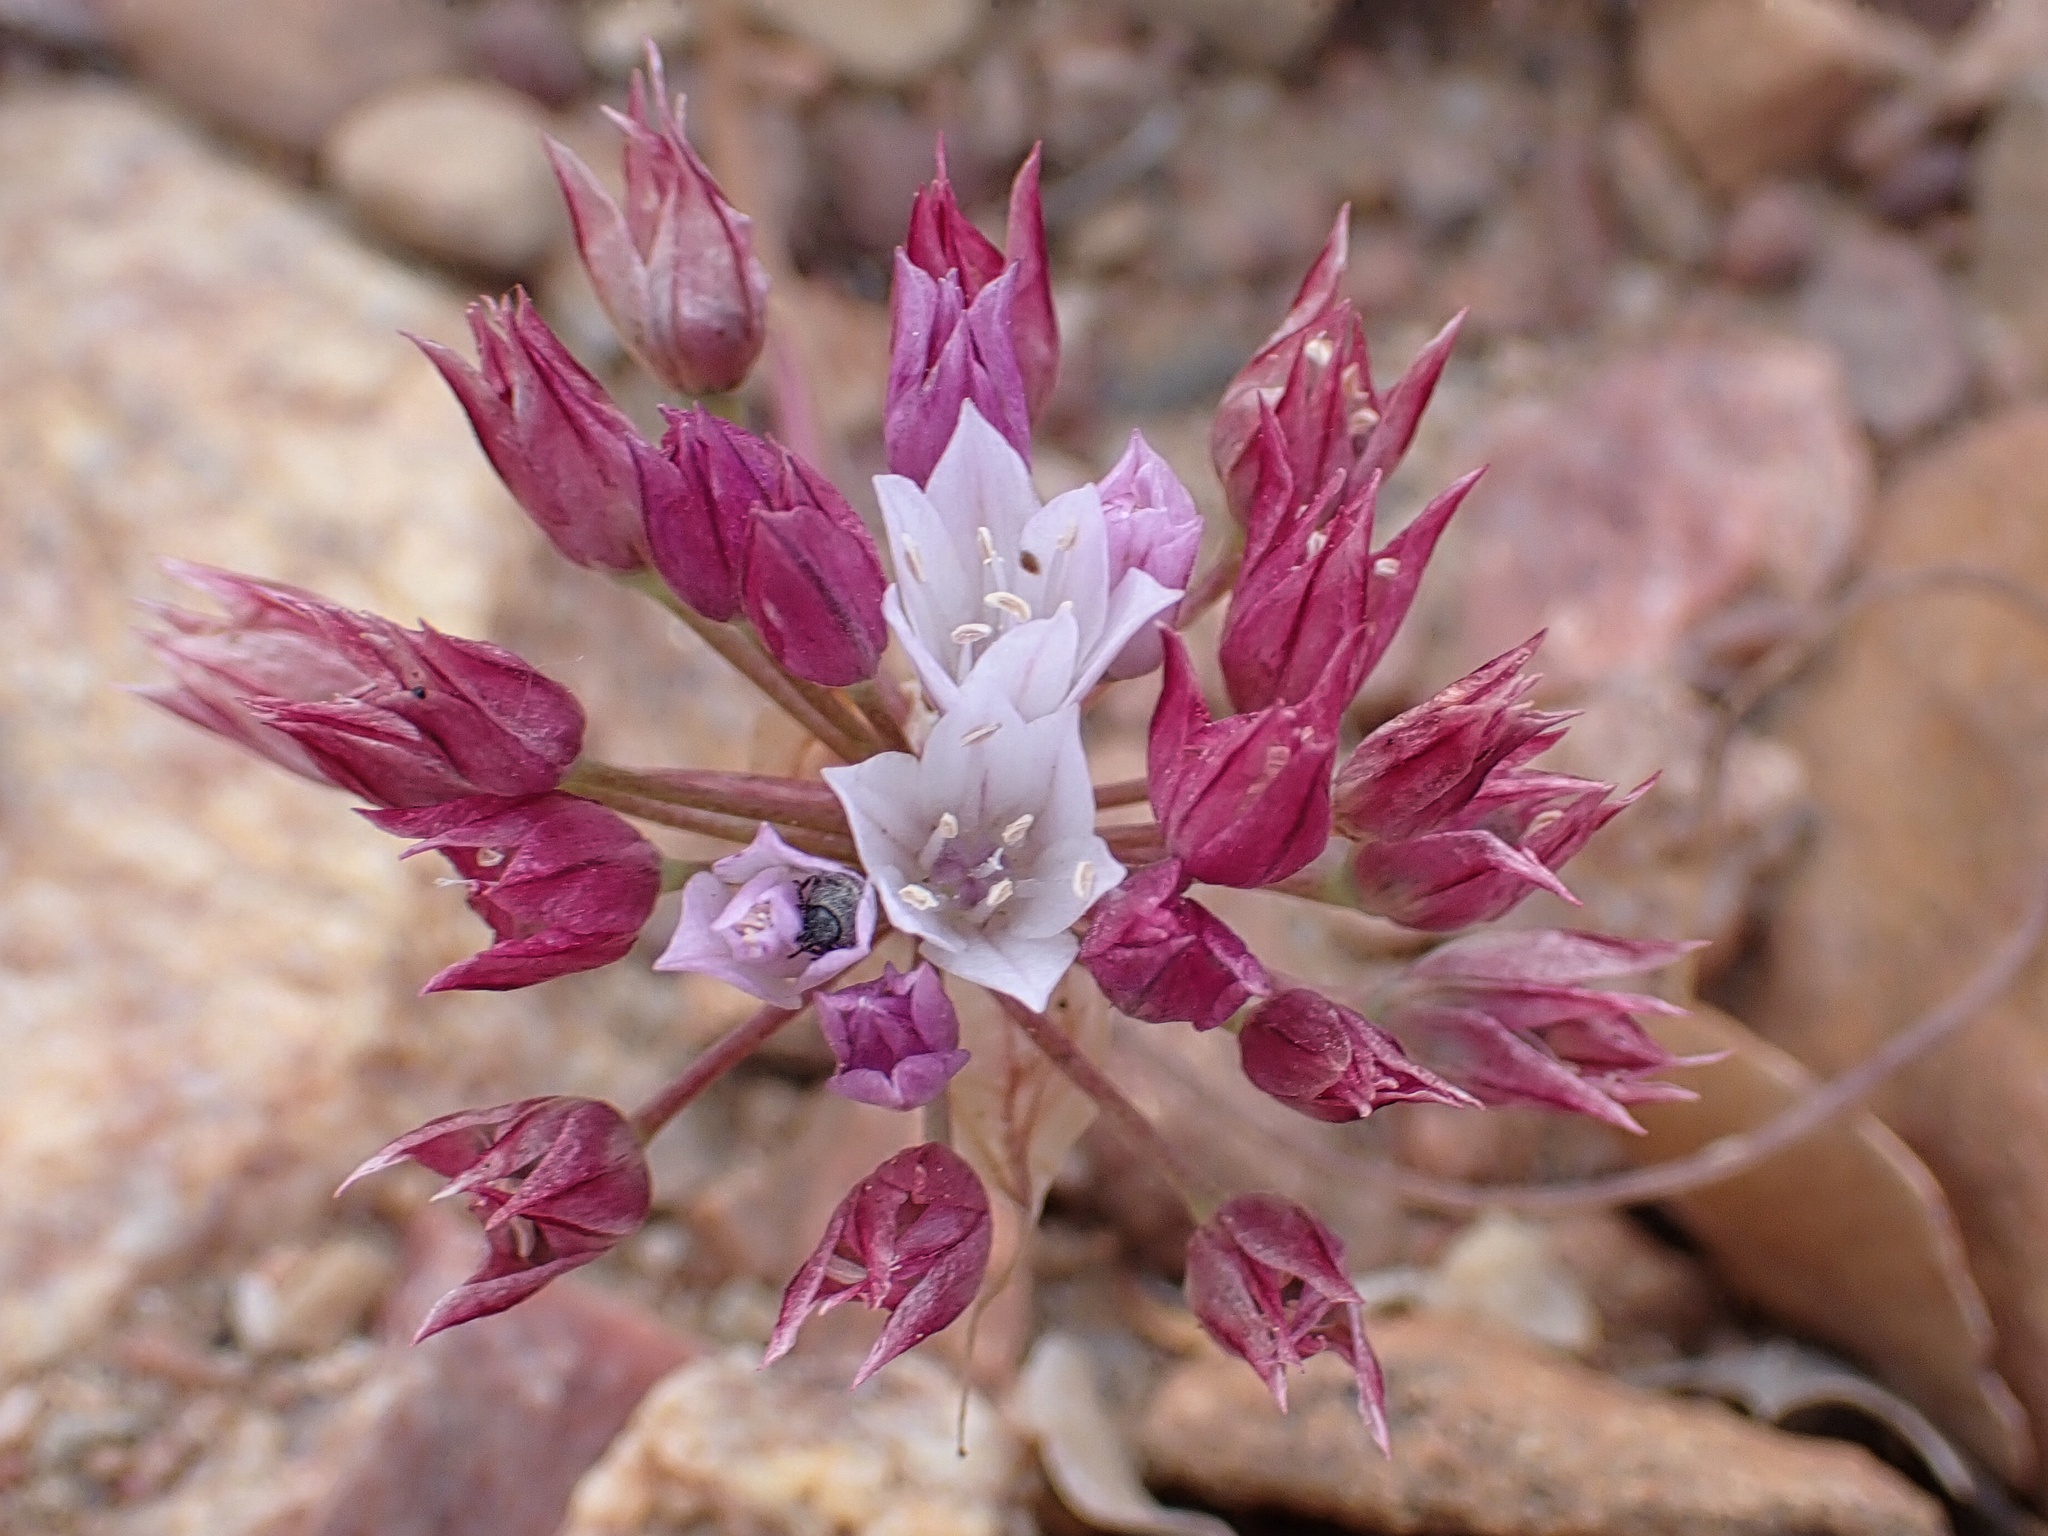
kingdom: Plantae
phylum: Tracheophyta
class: Liliopsida
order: Asparagales
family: Amaryllidaceae
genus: Allium
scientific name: Allium parryi
